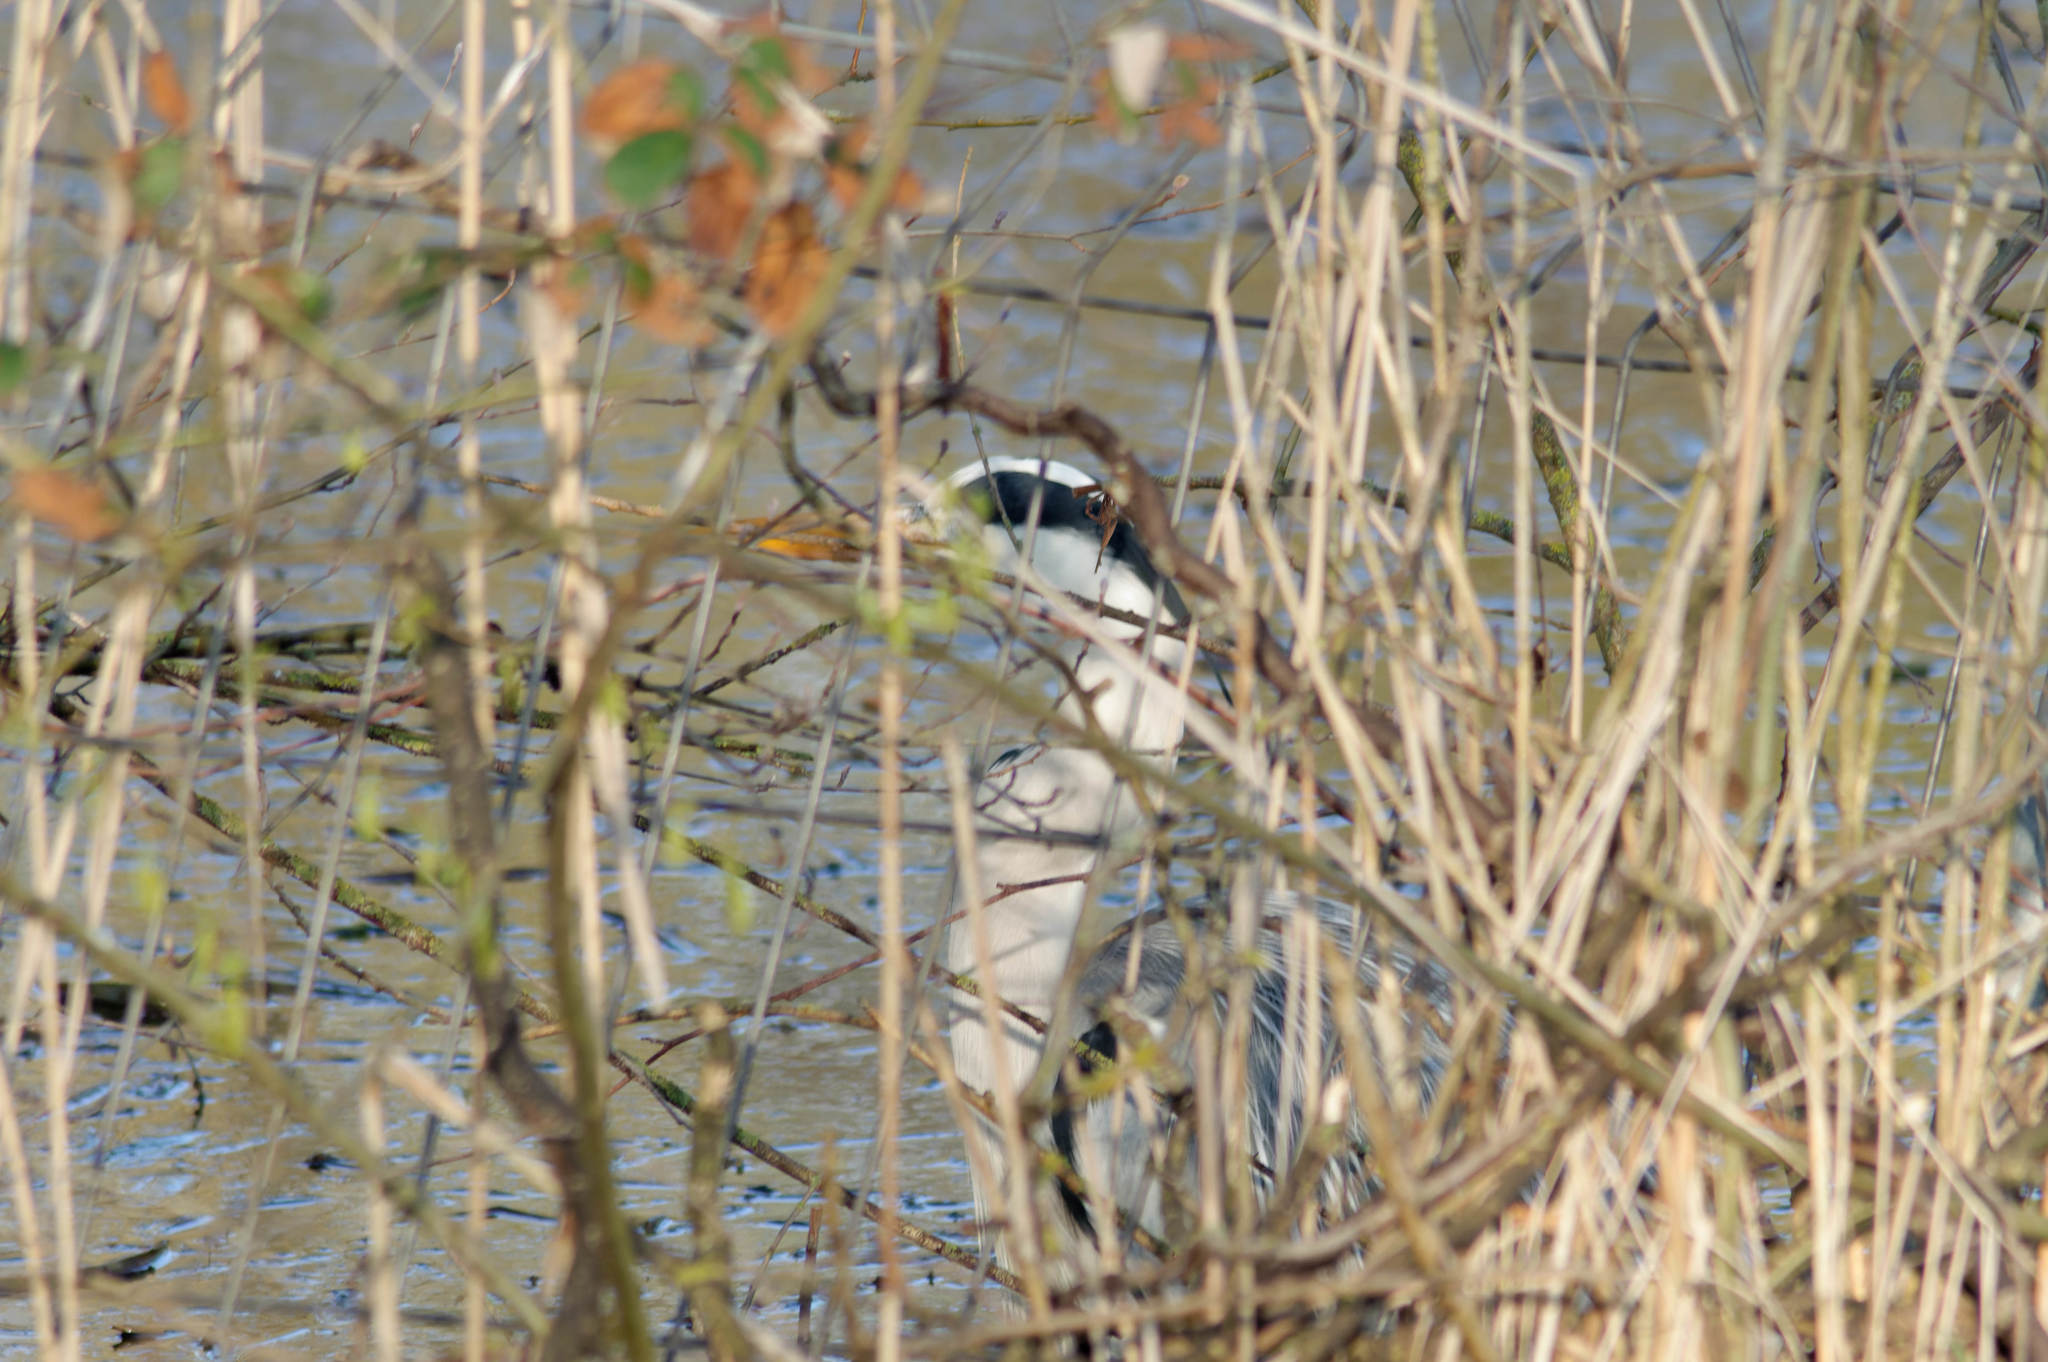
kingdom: Animalia
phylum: Chordata
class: Aves
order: Pelecaniformes
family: Ardeidae
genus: Ardea
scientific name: Ardea cinerea
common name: Grey heron
